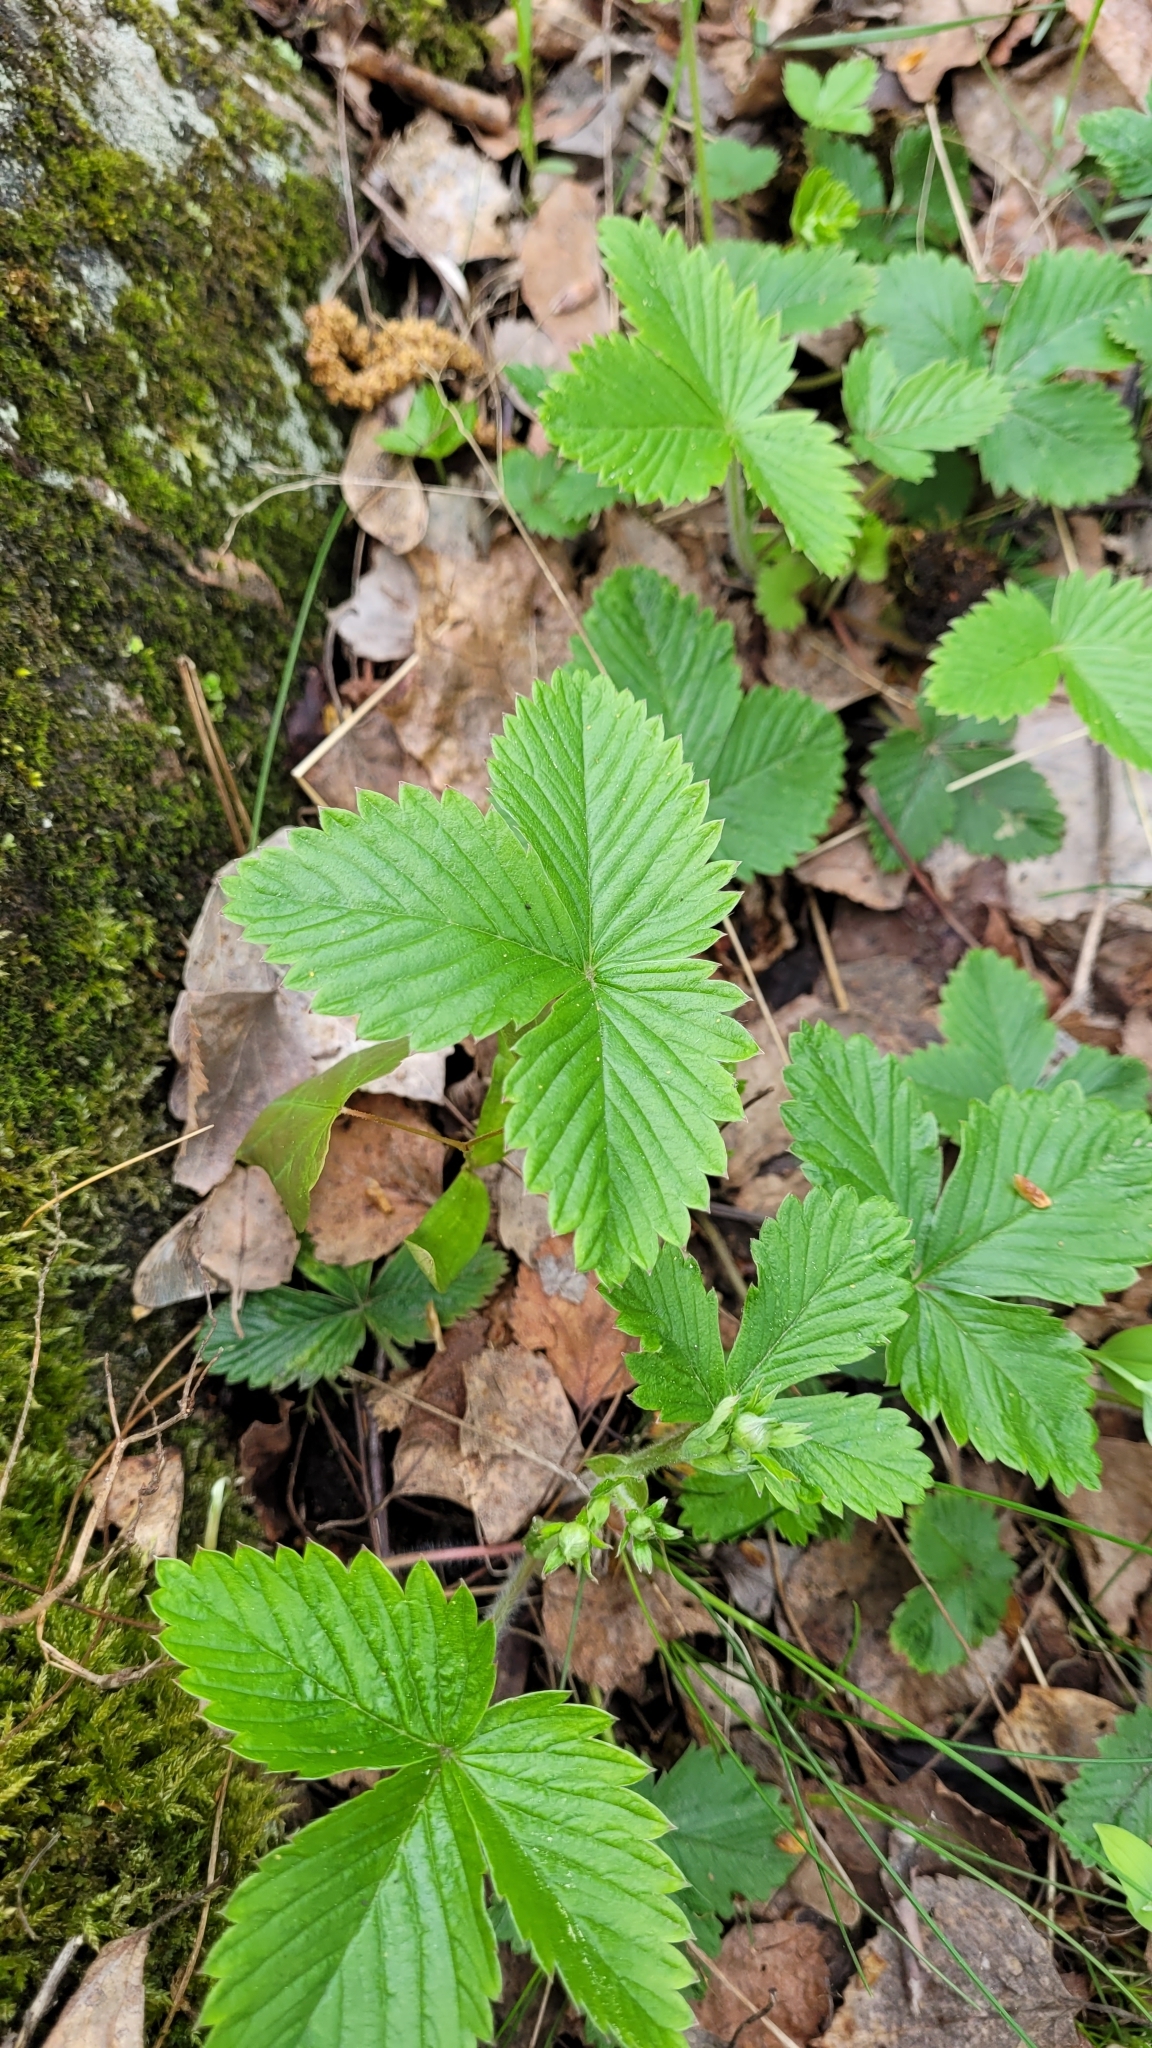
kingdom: Plantae
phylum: Tracheophyta
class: Magnoliopsida
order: Rosales
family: Rosaceae
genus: Fragaria
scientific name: Fragaria vesca
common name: Wild strawberry
